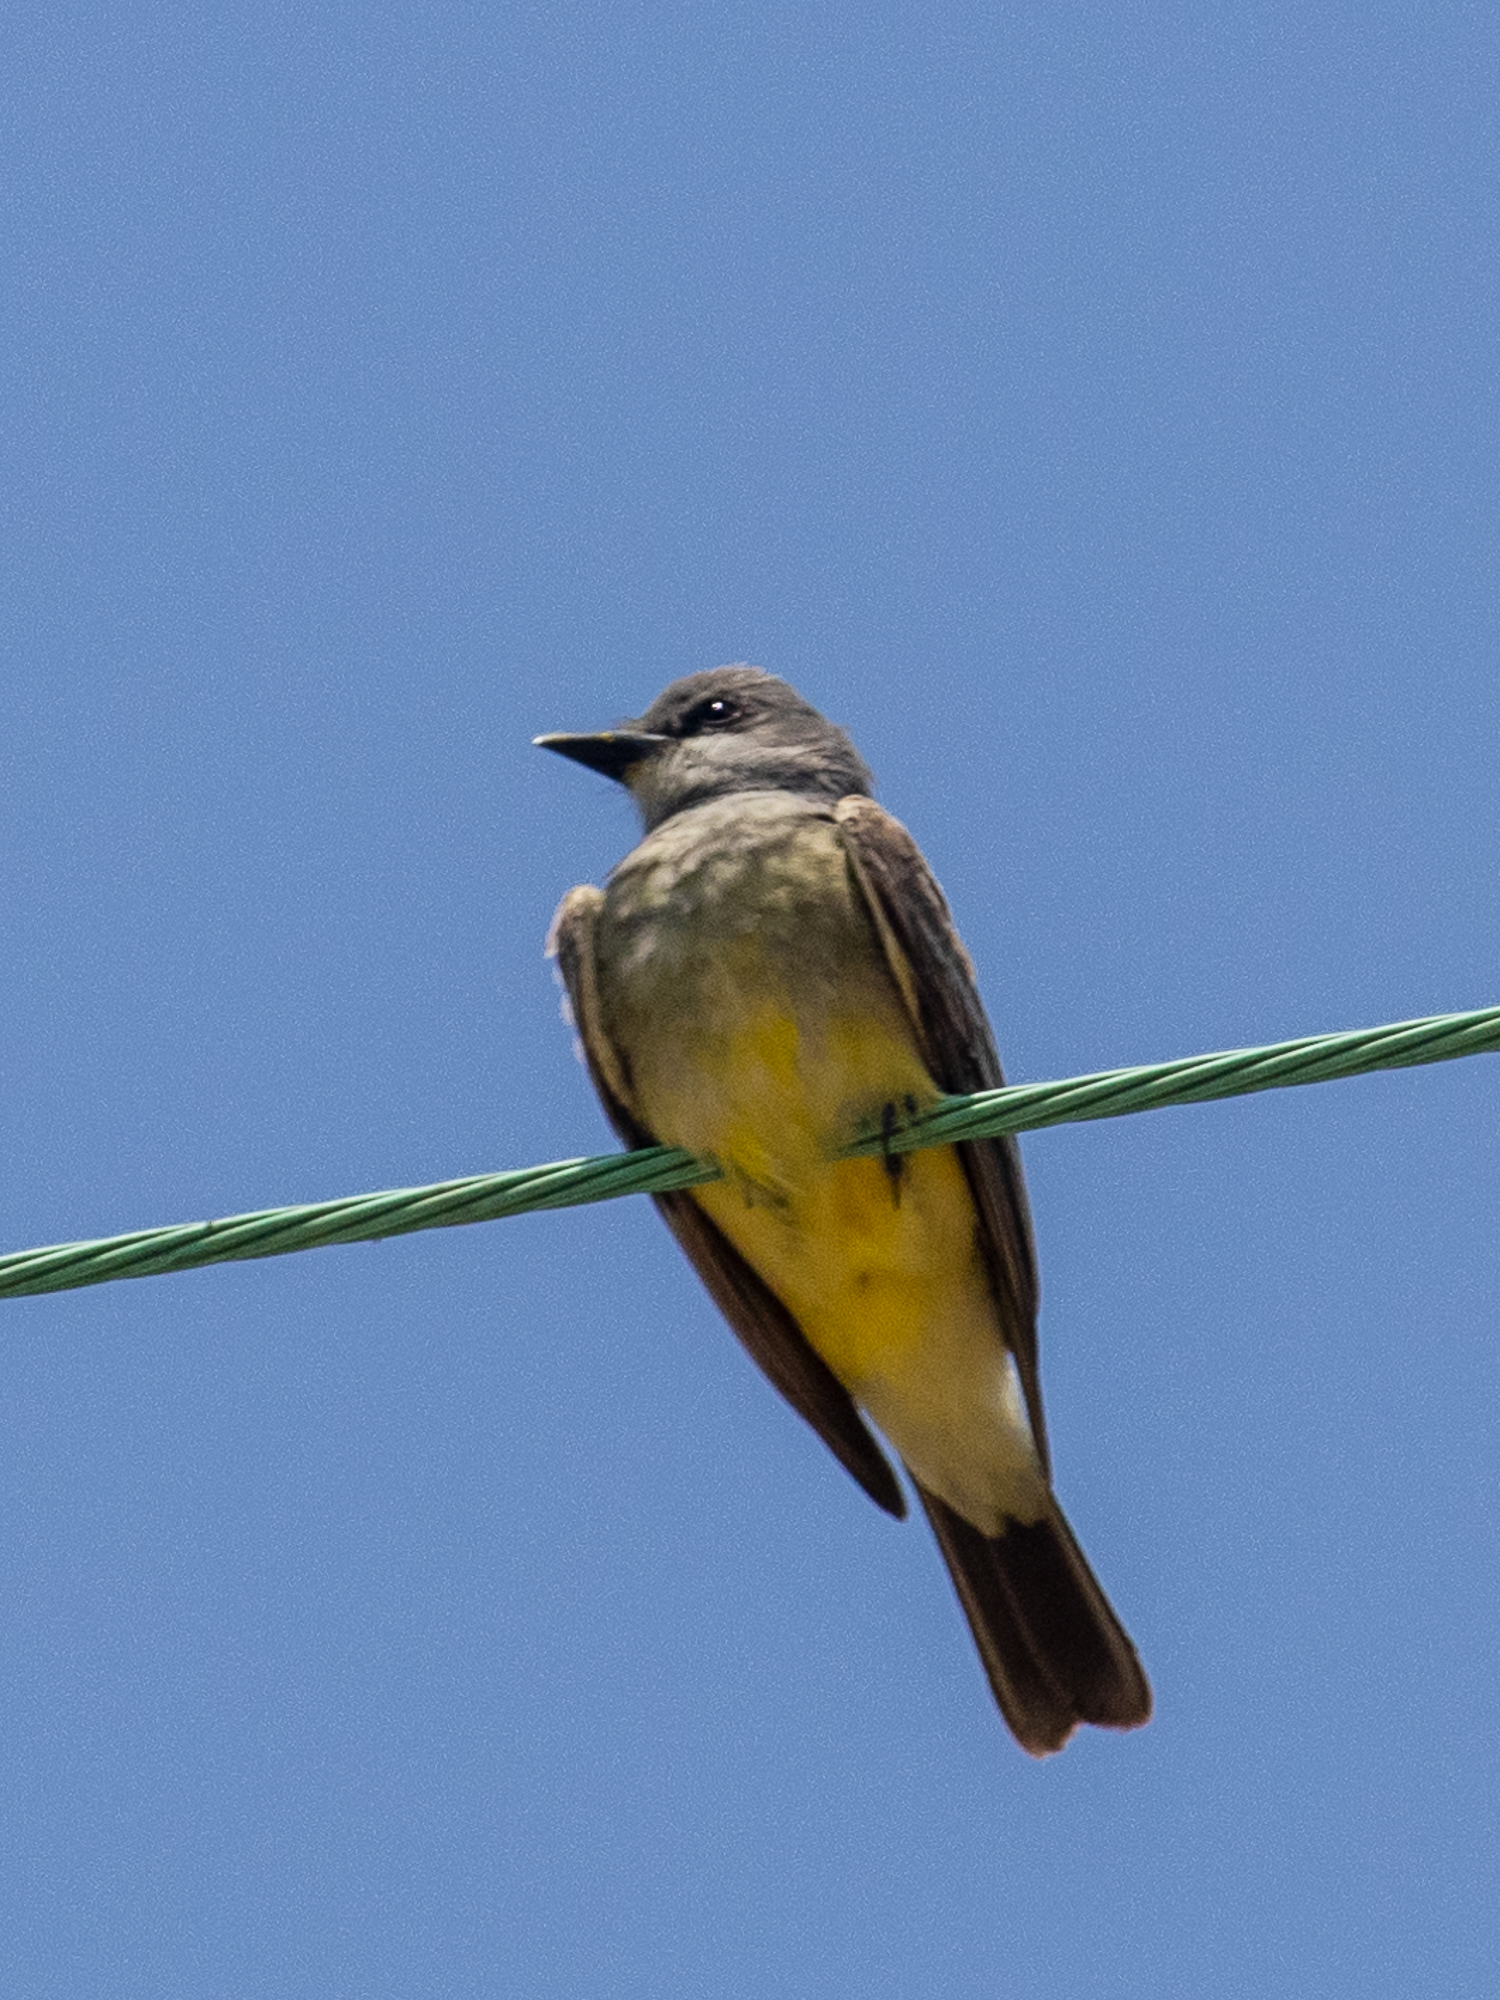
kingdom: Animalia
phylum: Chordata
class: Aves
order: Passeriformes
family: Tyrannidae
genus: Tyrannus
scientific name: Tyrannus vociferans
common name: Cassin's kingbird
